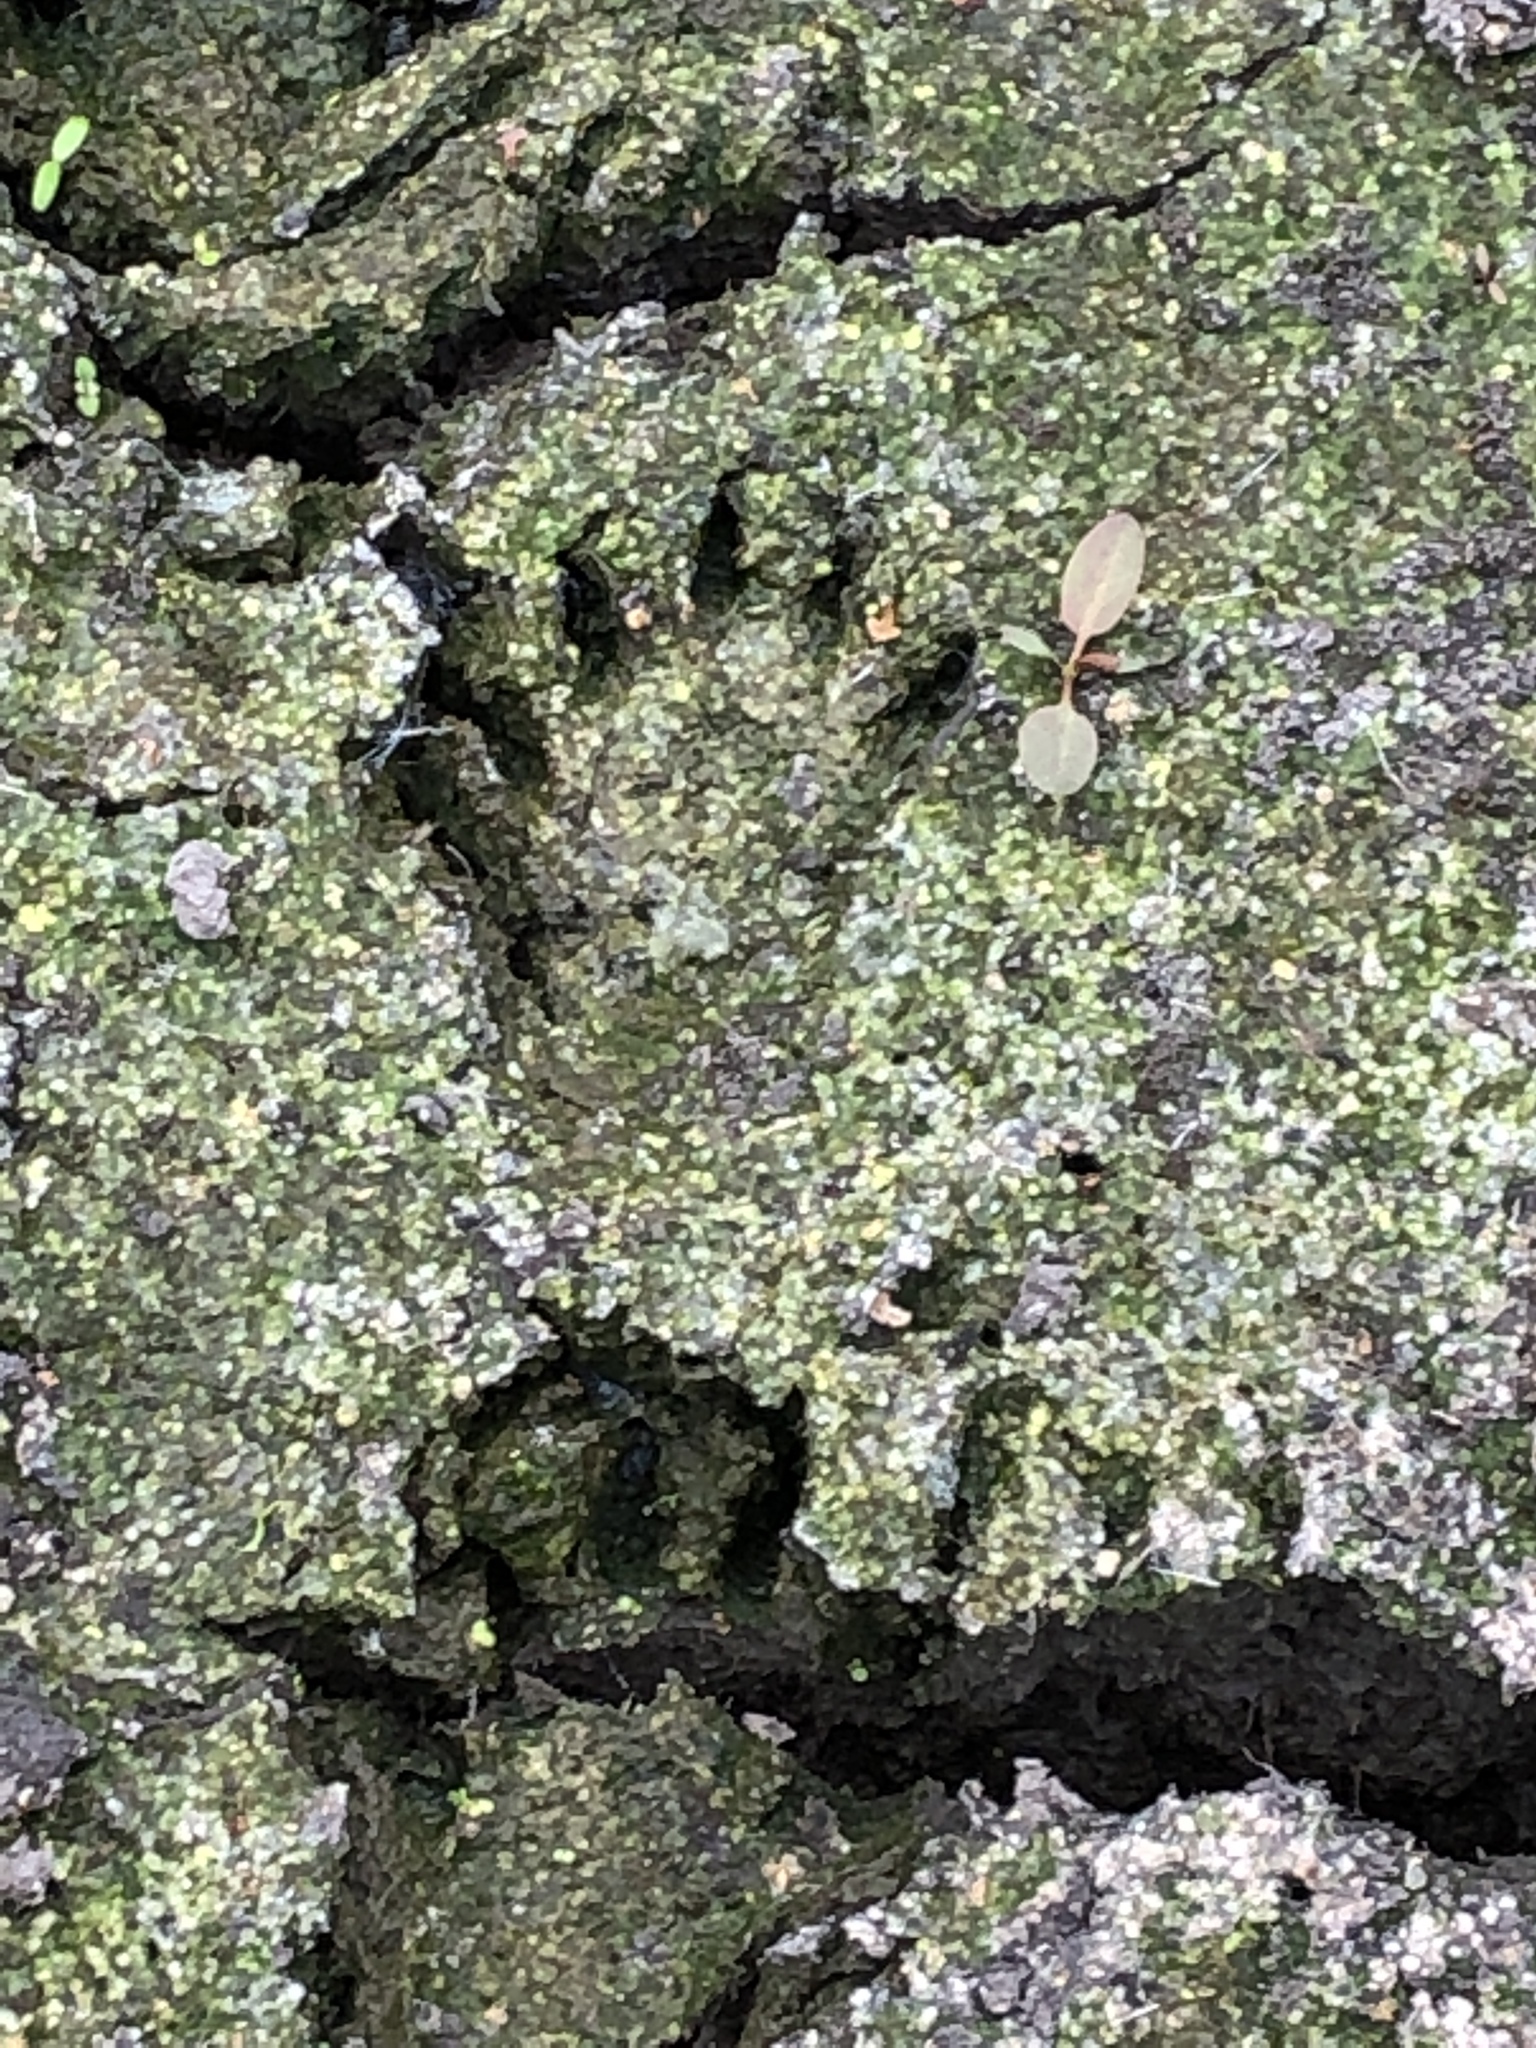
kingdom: Animalia
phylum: Chordata
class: Mammalia
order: Carnivora
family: Procyonidae
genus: Procyon
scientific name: Procyon lotor
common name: Raccoon
